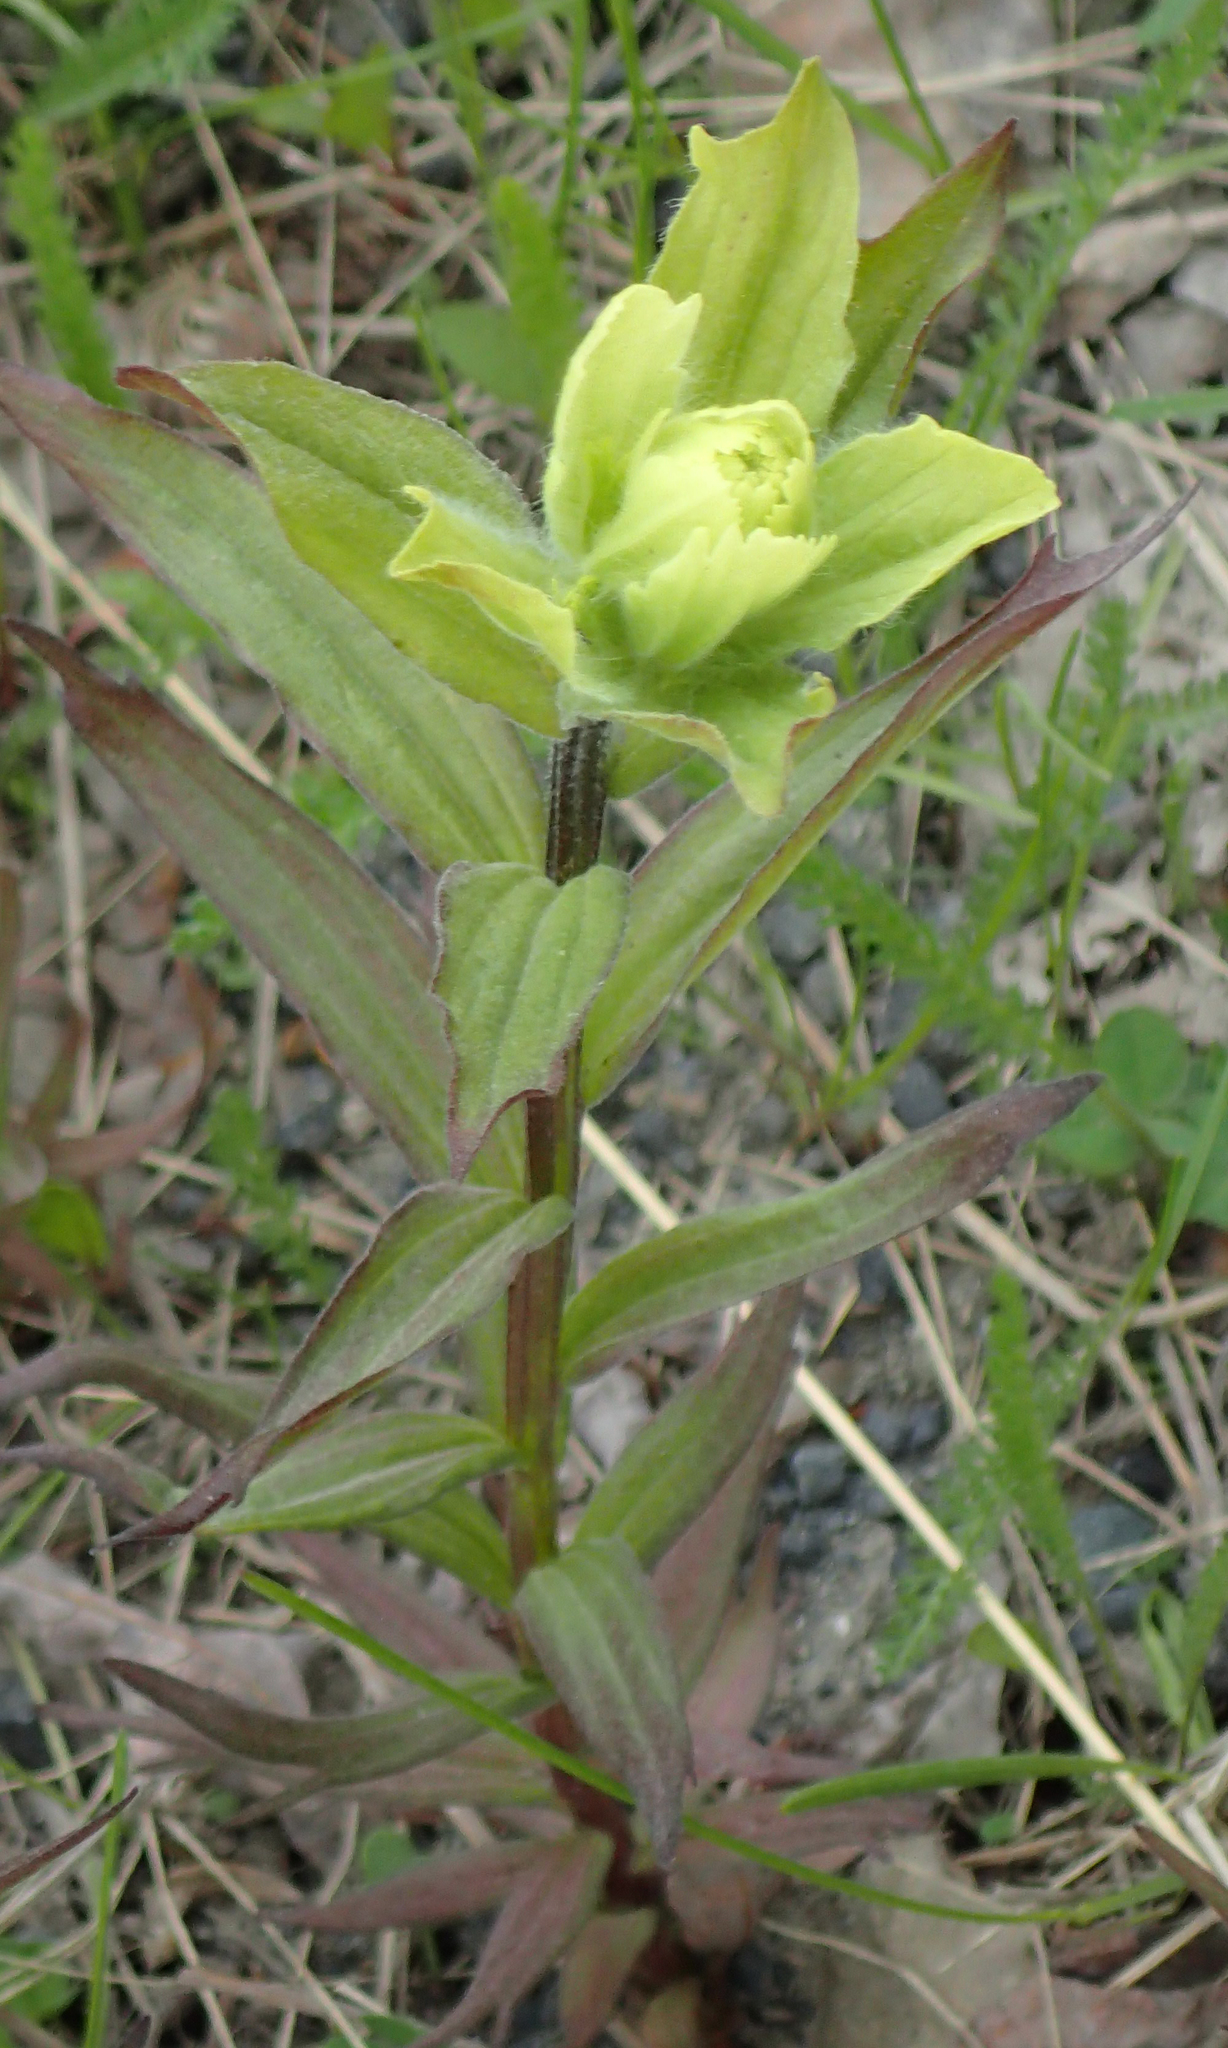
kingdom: Plantae
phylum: Tracheophyta
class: Magnoliopsida
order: Lamiales
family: Orobanchaceae
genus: Castilleja
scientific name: Castilleja unalaschcensis
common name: Unalaska paintbrush
